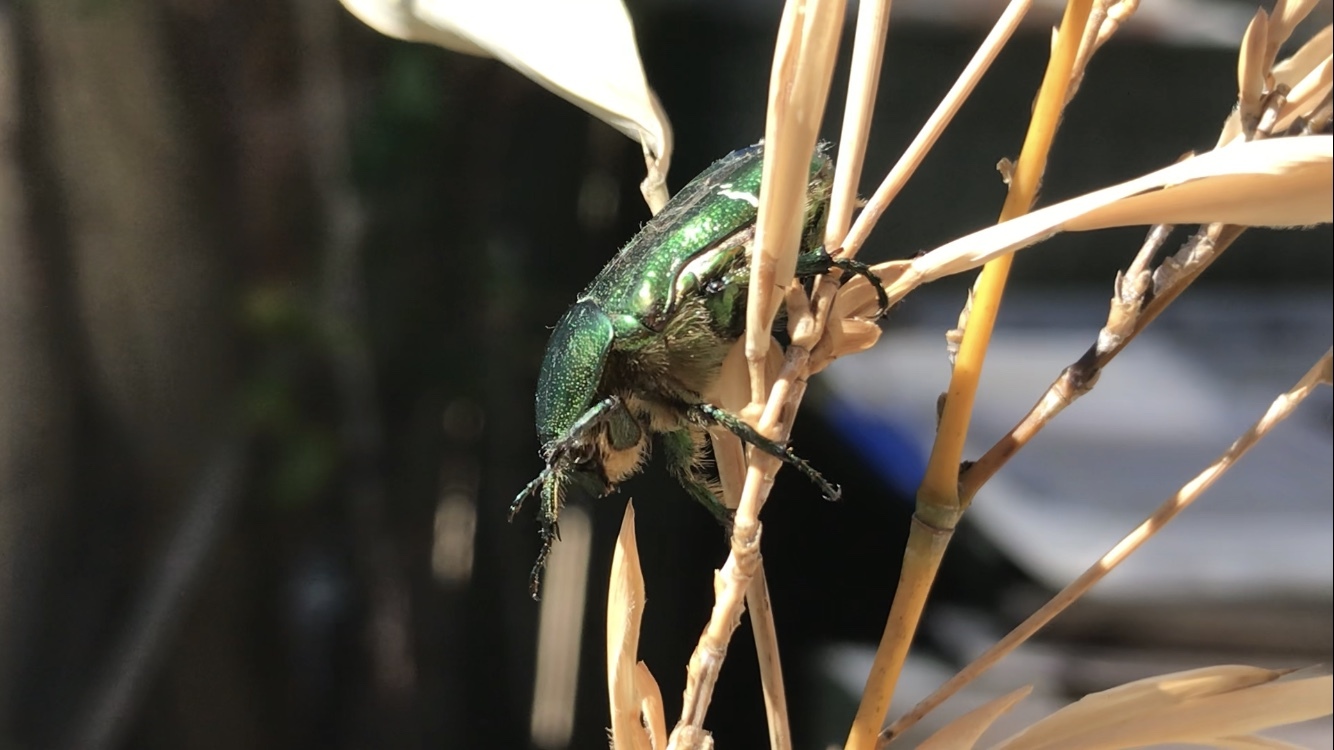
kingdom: Animalia
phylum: Arthropoda
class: Insecta
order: Coleoptera
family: Scarabaeidae
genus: Cetonia
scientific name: Cetonia aurata
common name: Rose chafer
